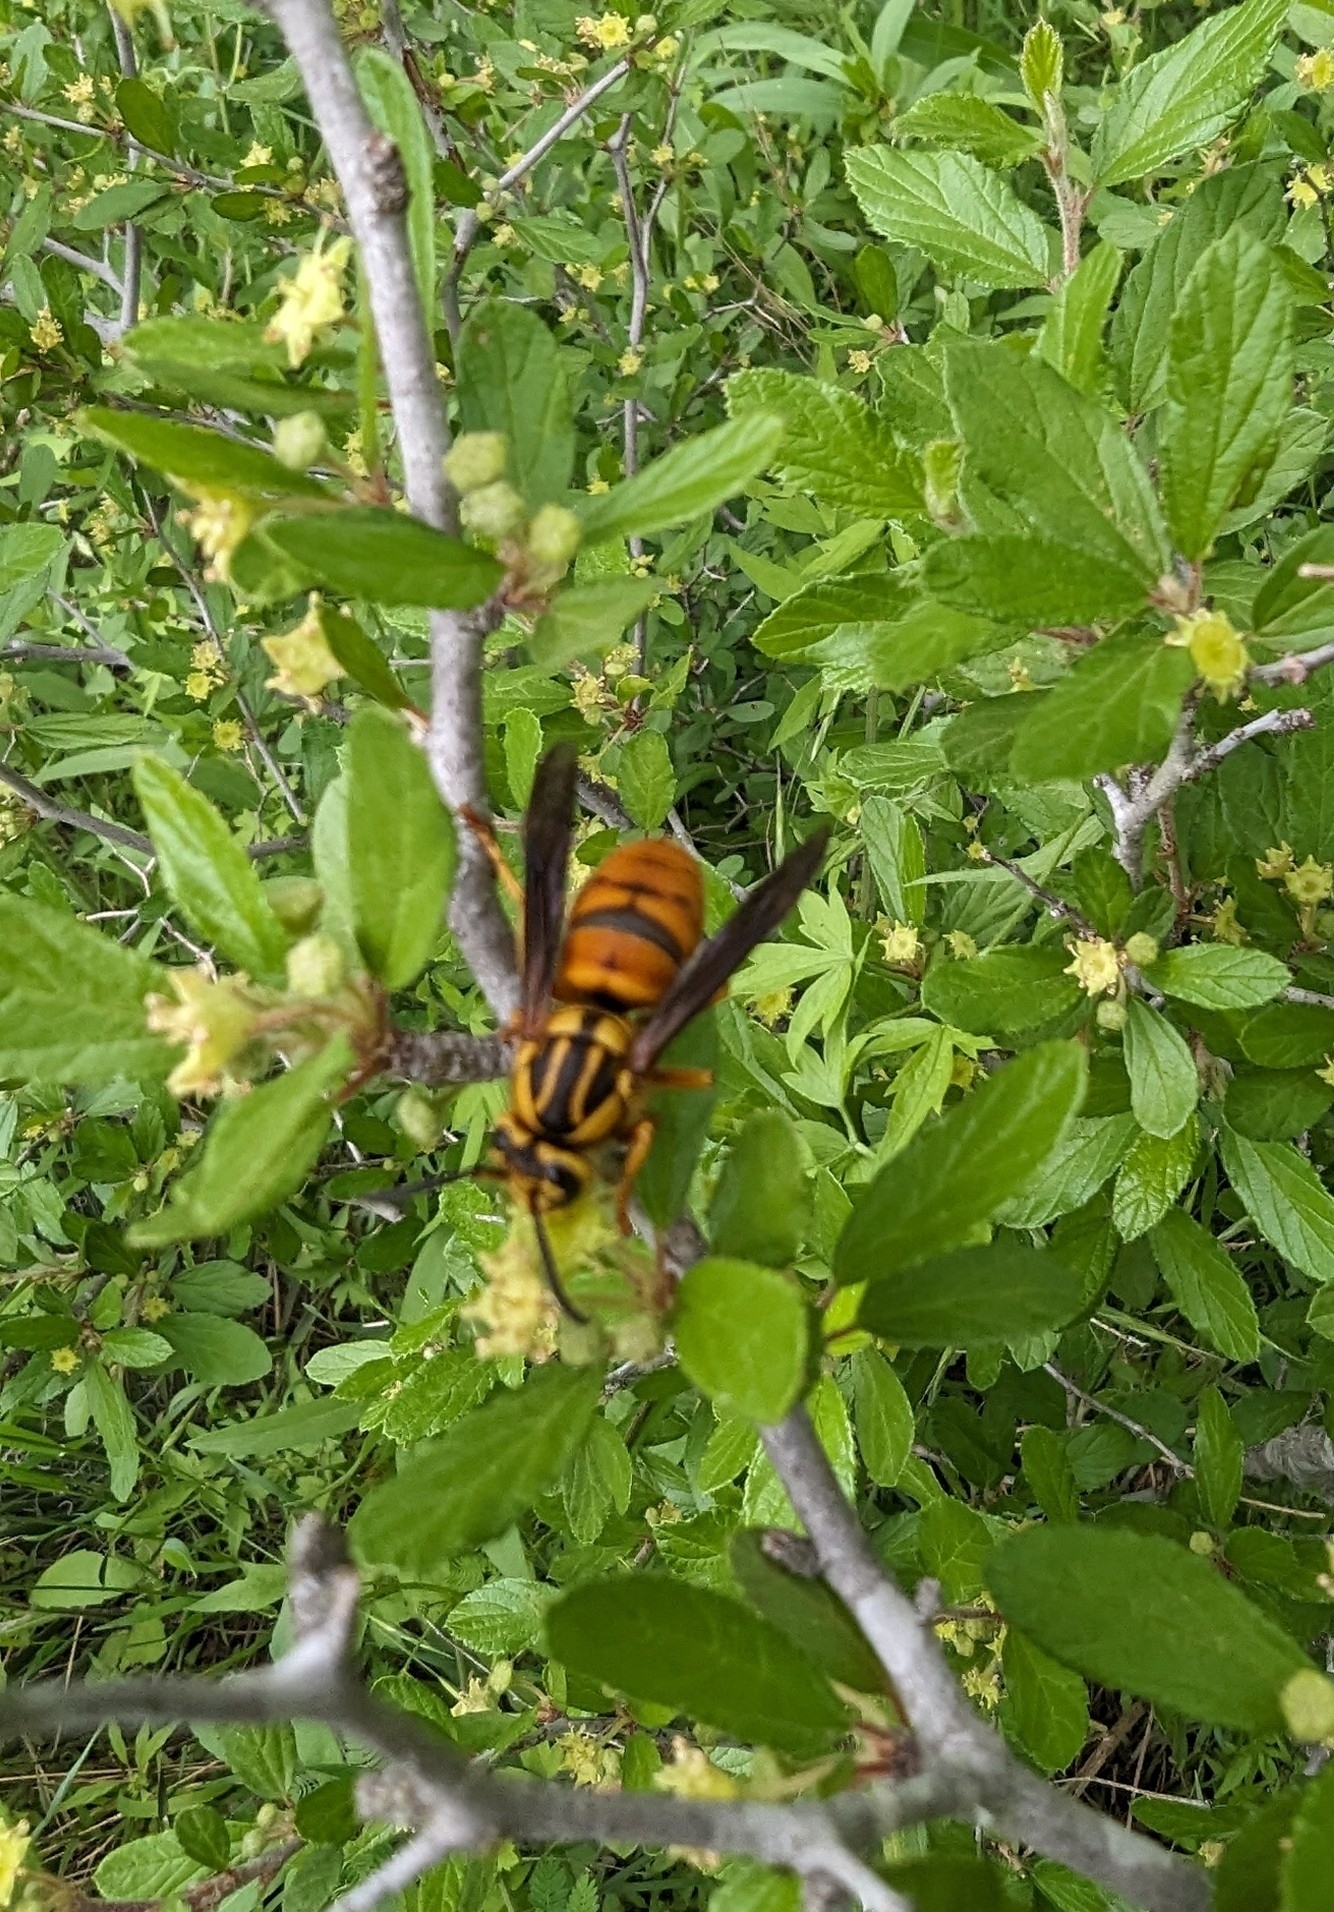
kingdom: Animalia
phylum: Arthropoda
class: Insecta
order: Hymenoptera
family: Vespidae
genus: Vespula
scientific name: Vespula squamosa
